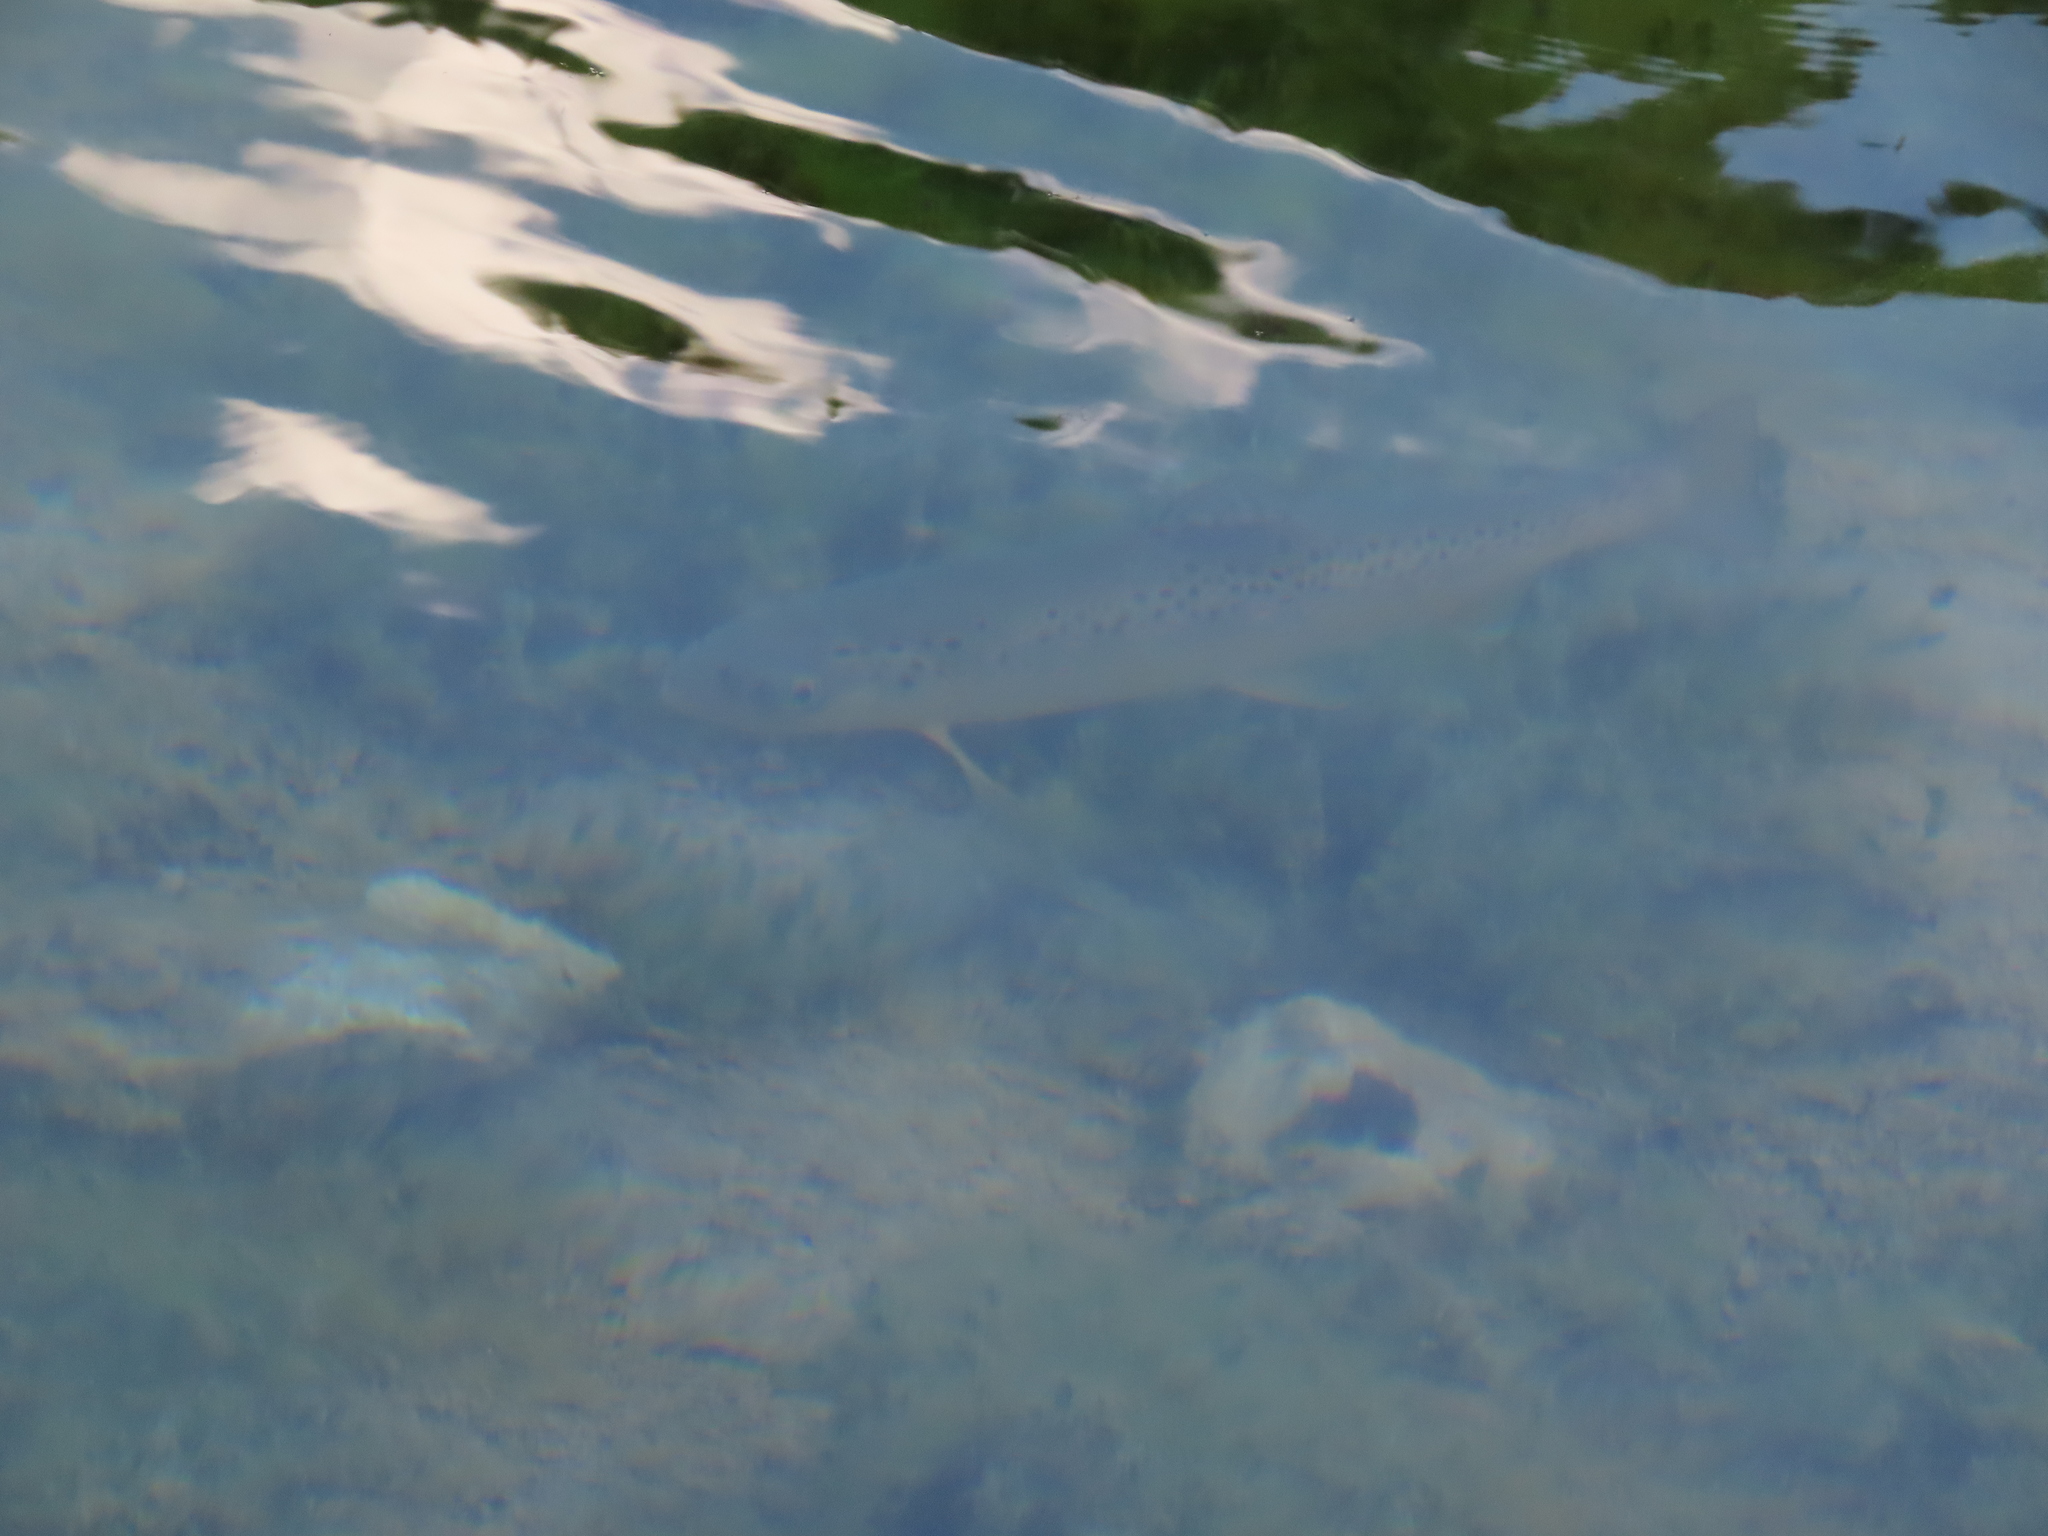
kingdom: Animalia
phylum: Chordata
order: Salmoniformes
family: Salmonidae
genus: Salmo
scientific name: Salmo trutta
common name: Brown trout
